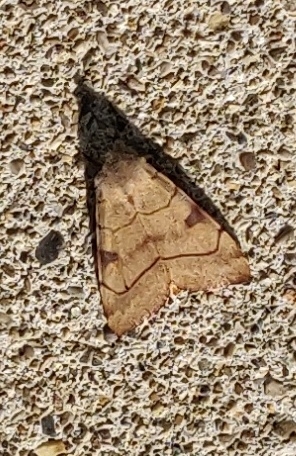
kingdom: Animalia
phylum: Arthropoda
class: Insecta
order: Lepidoptera
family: Noctuidae
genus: Choephora
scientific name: Choephora fungorum
